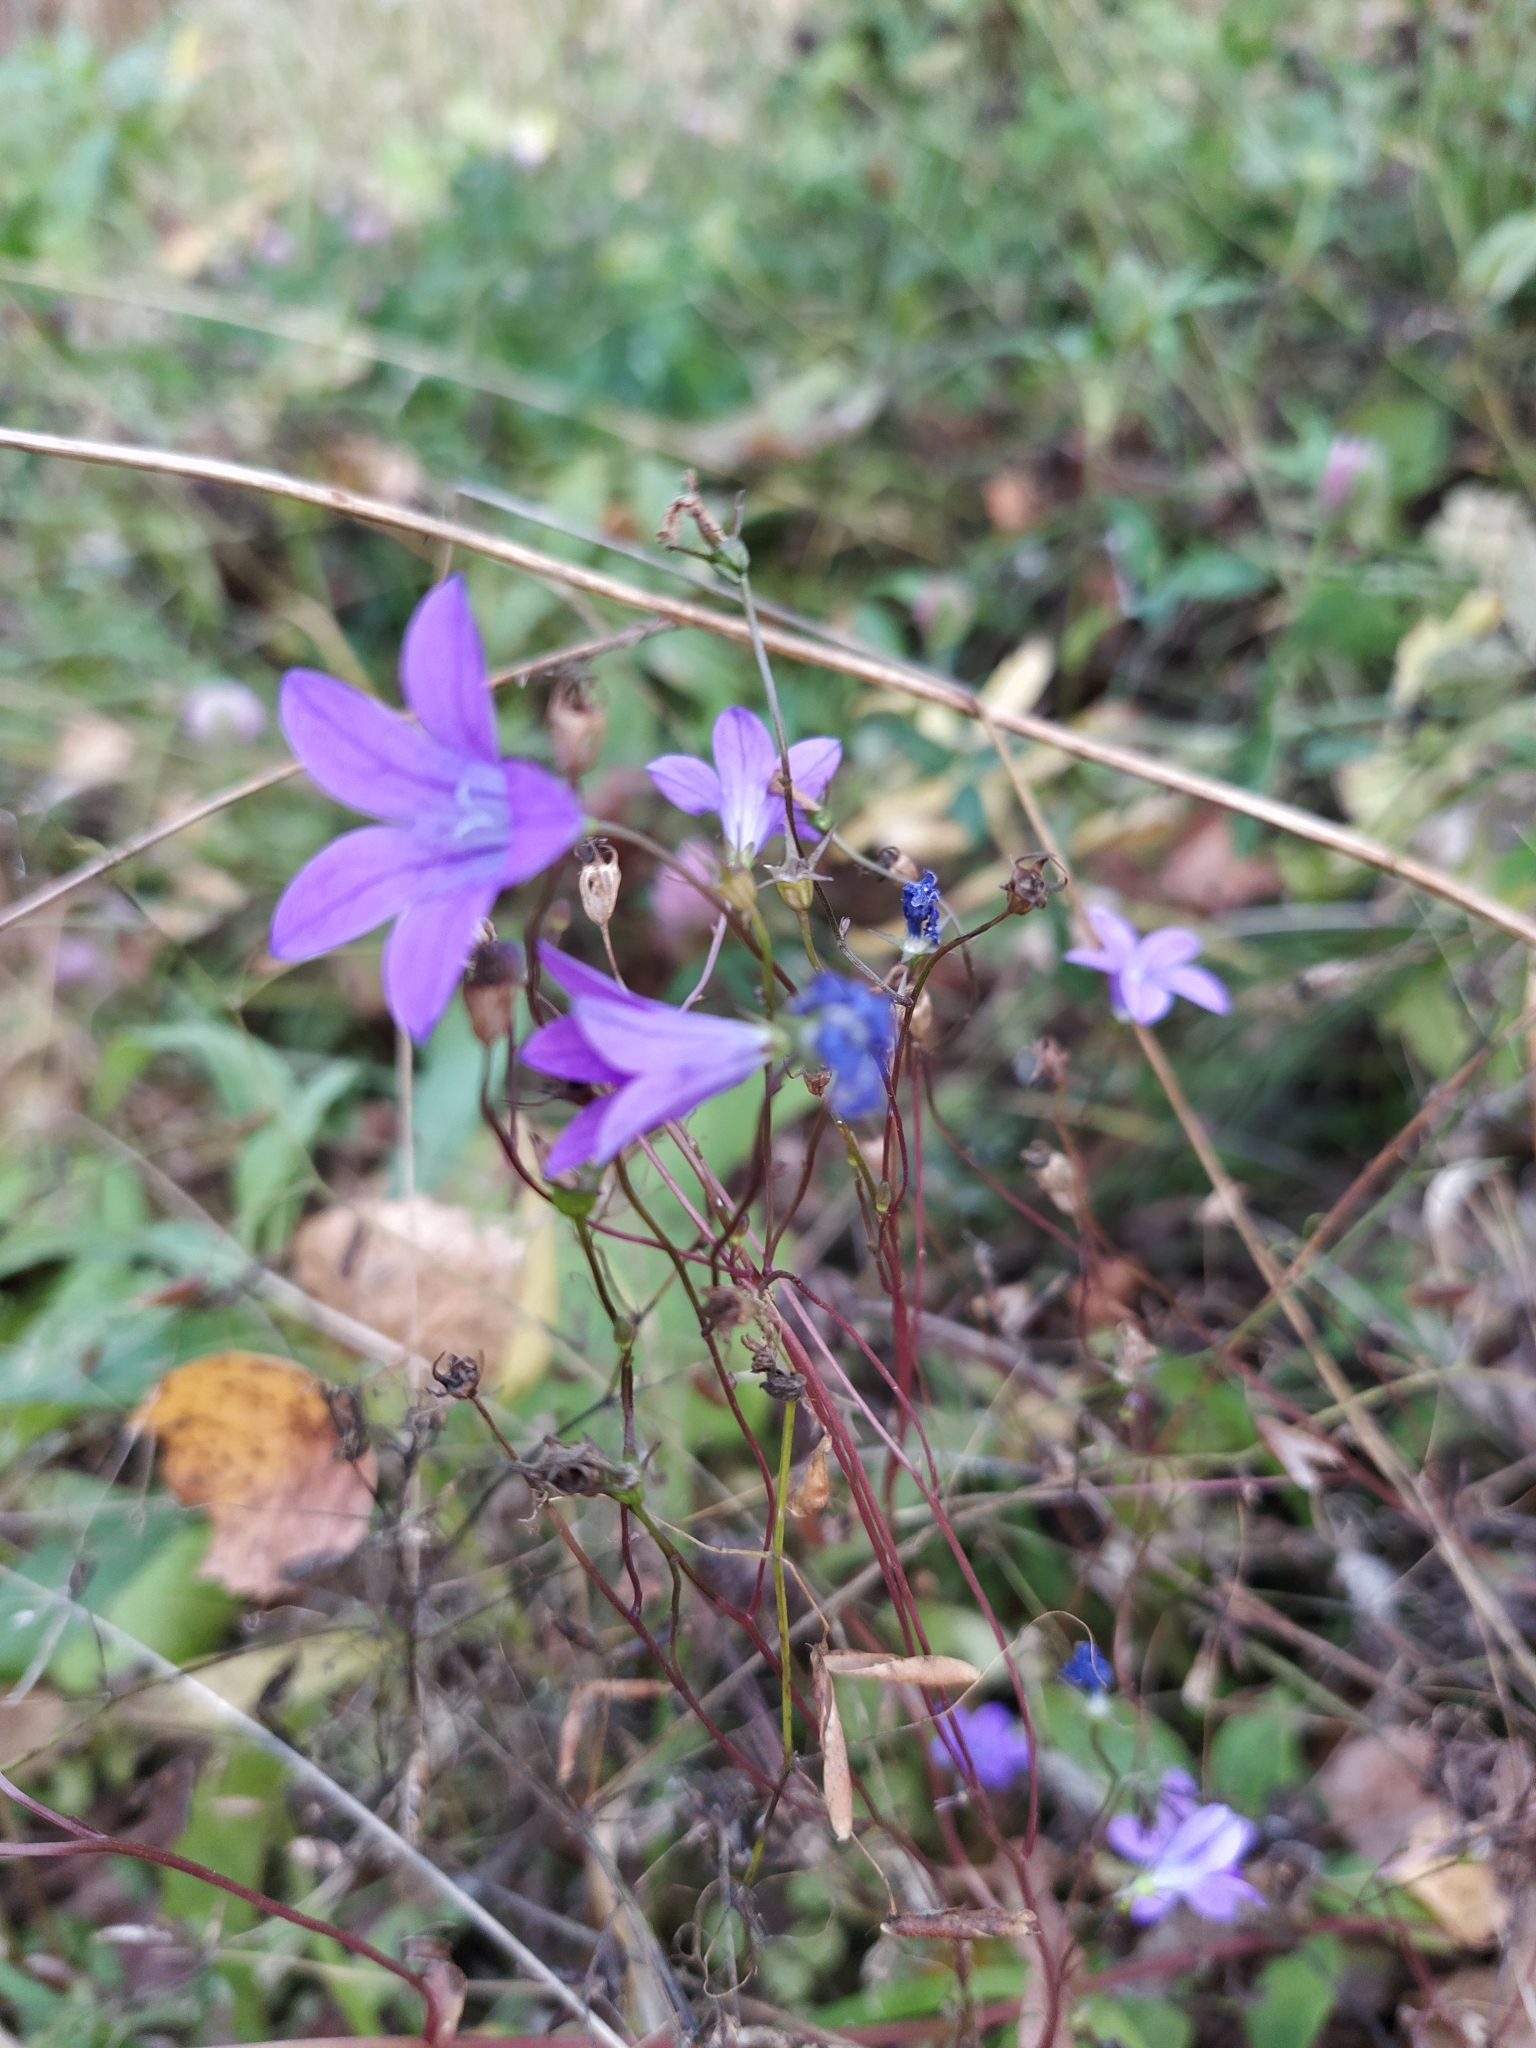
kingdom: Plantae
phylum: Tracheophyta
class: Magnoliopsida
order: Asterales
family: Campanulaceae
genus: Campanula
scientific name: Campanula patula
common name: Spreading bellflower
